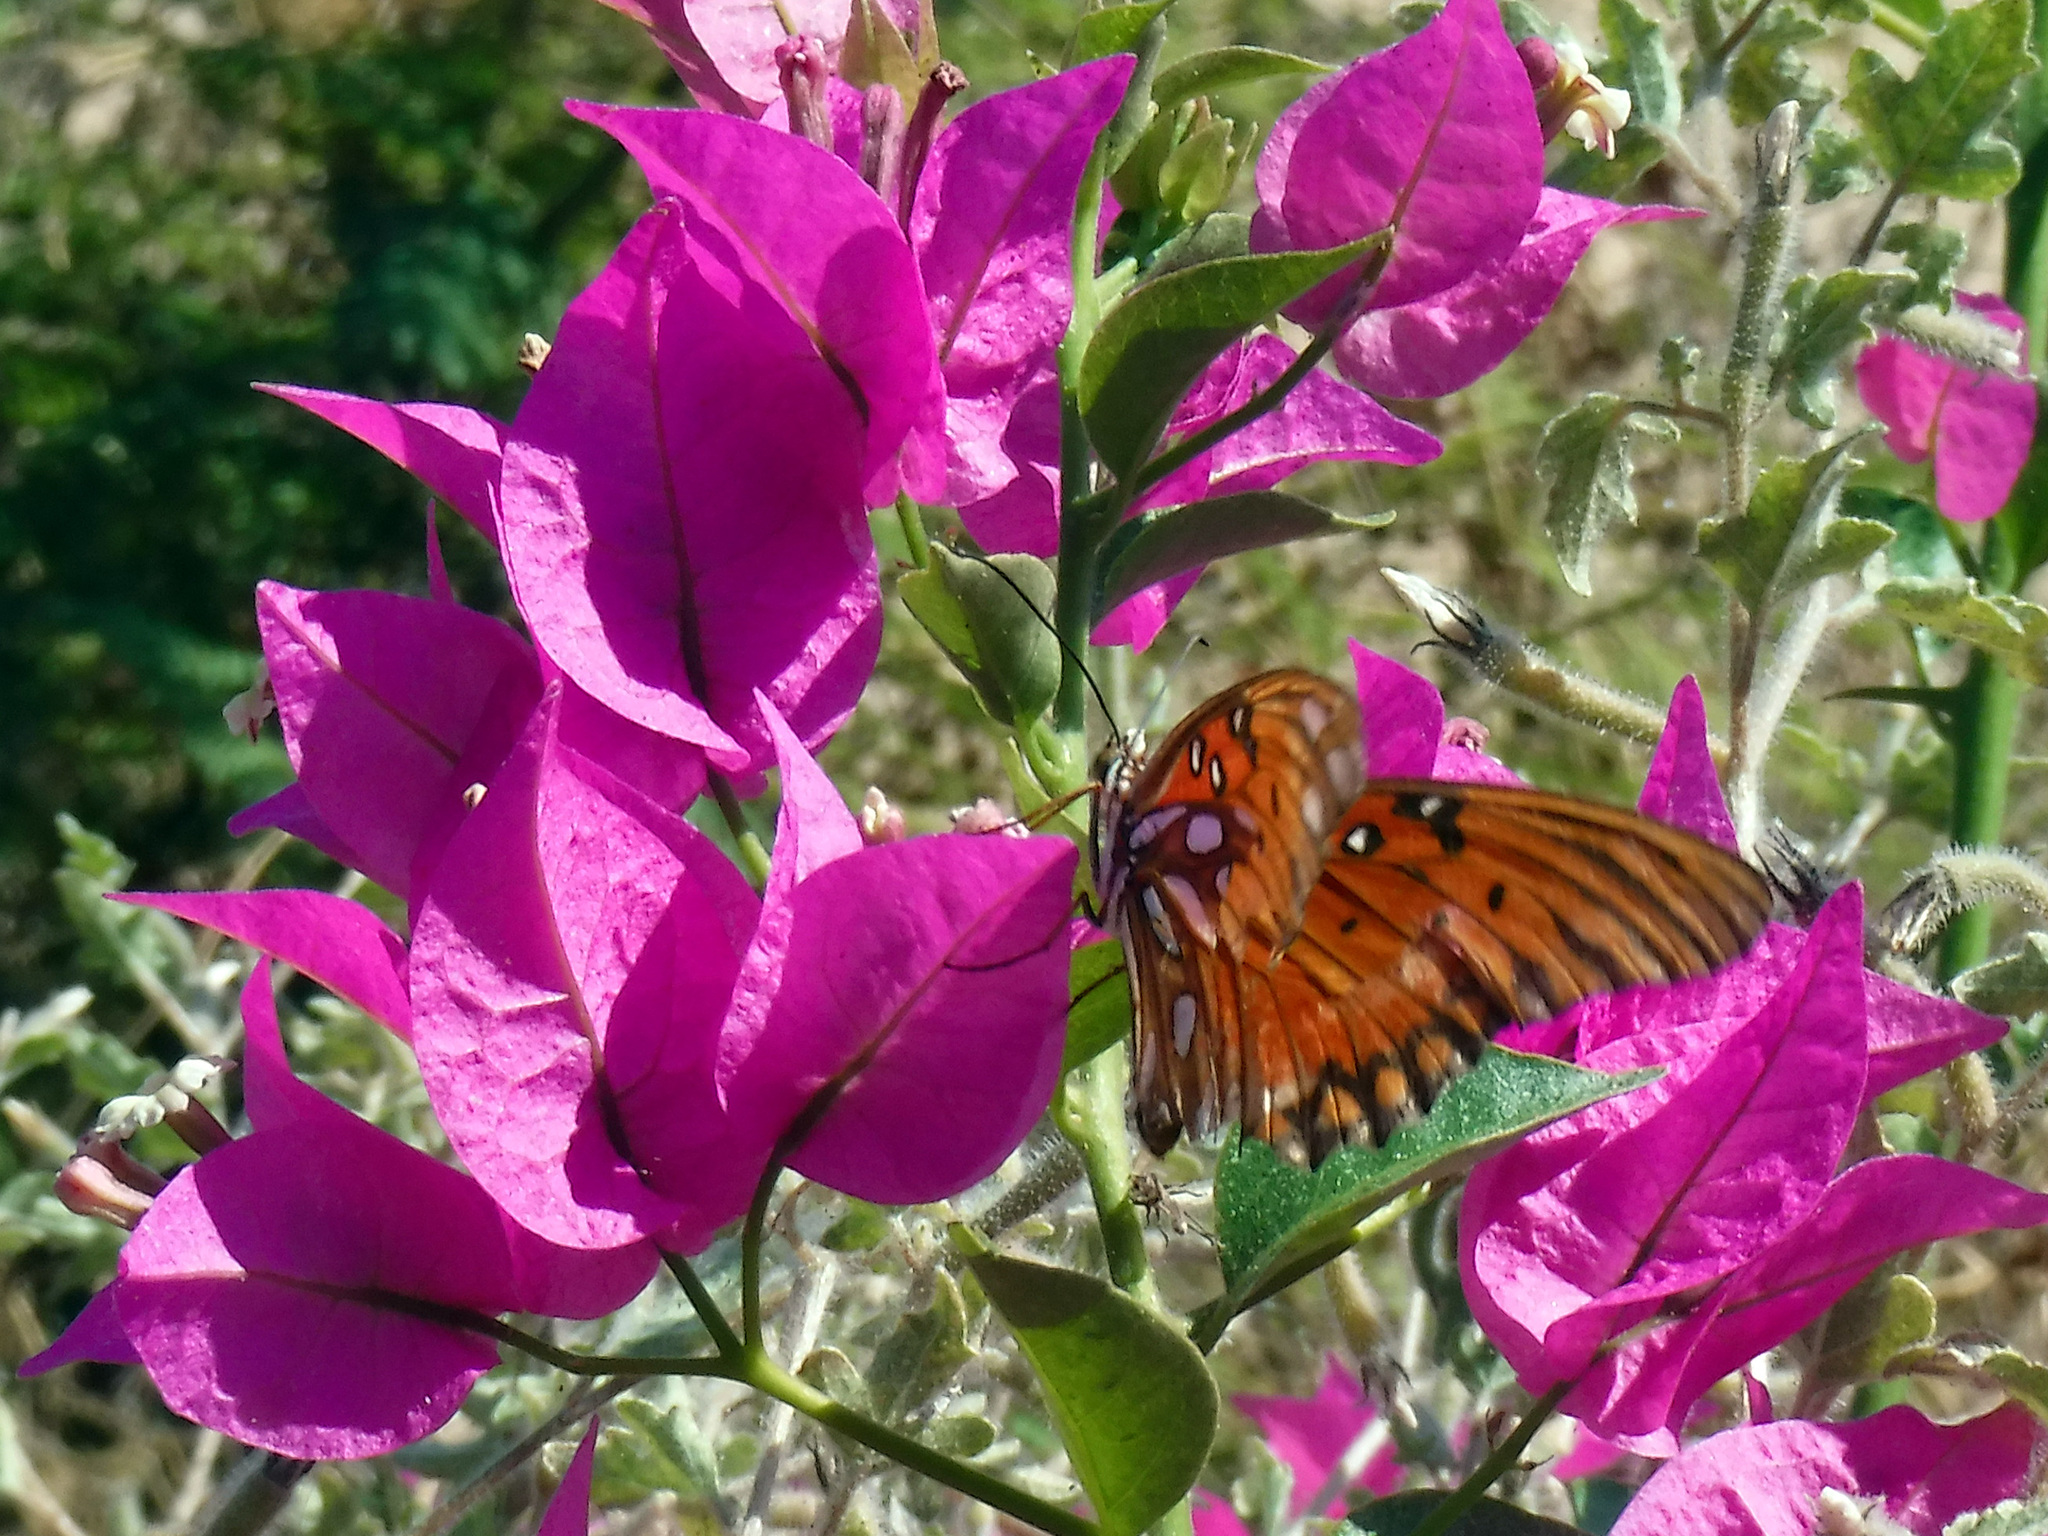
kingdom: Animalia
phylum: Arthropoda
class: Insecta
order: Lepidoptera
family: Nymphalidae
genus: Dione
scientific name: Dione vanillae
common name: Gulf fritillary
